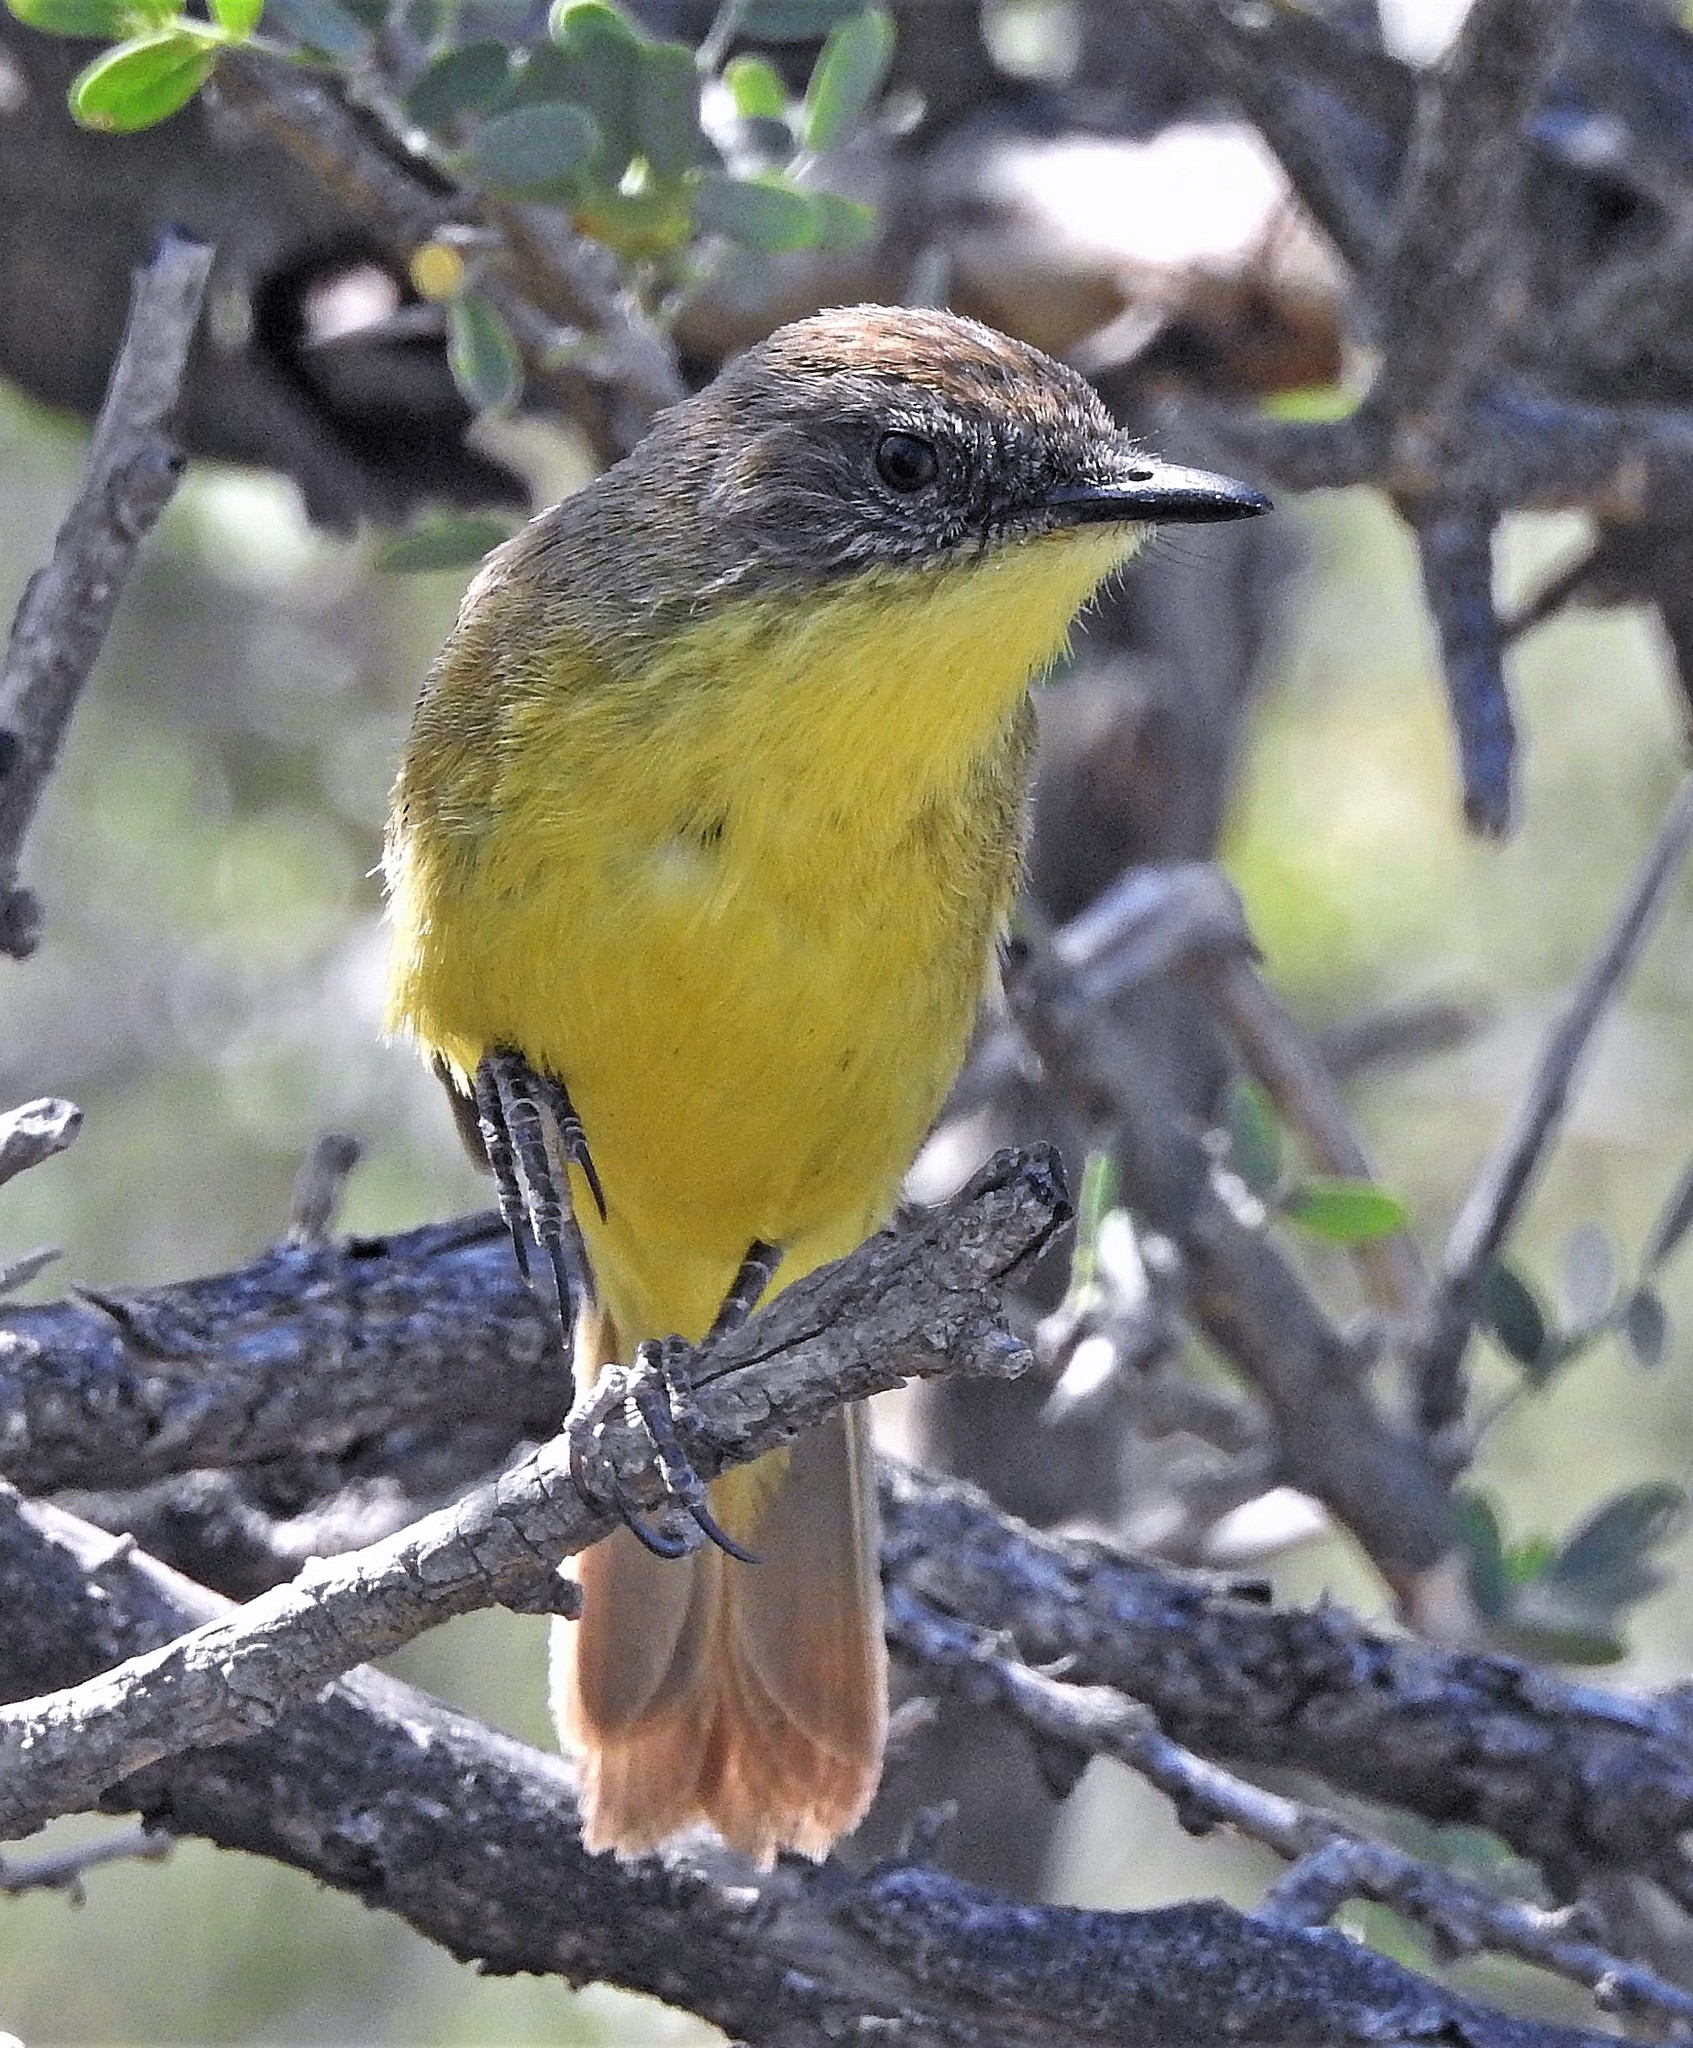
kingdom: Animalia
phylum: Chordata
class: Aves
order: Passeriformes
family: Tyrannidae
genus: Pseudocolopteryx
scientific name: Pseudocolopteryx citreola
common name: Ticking doradito
